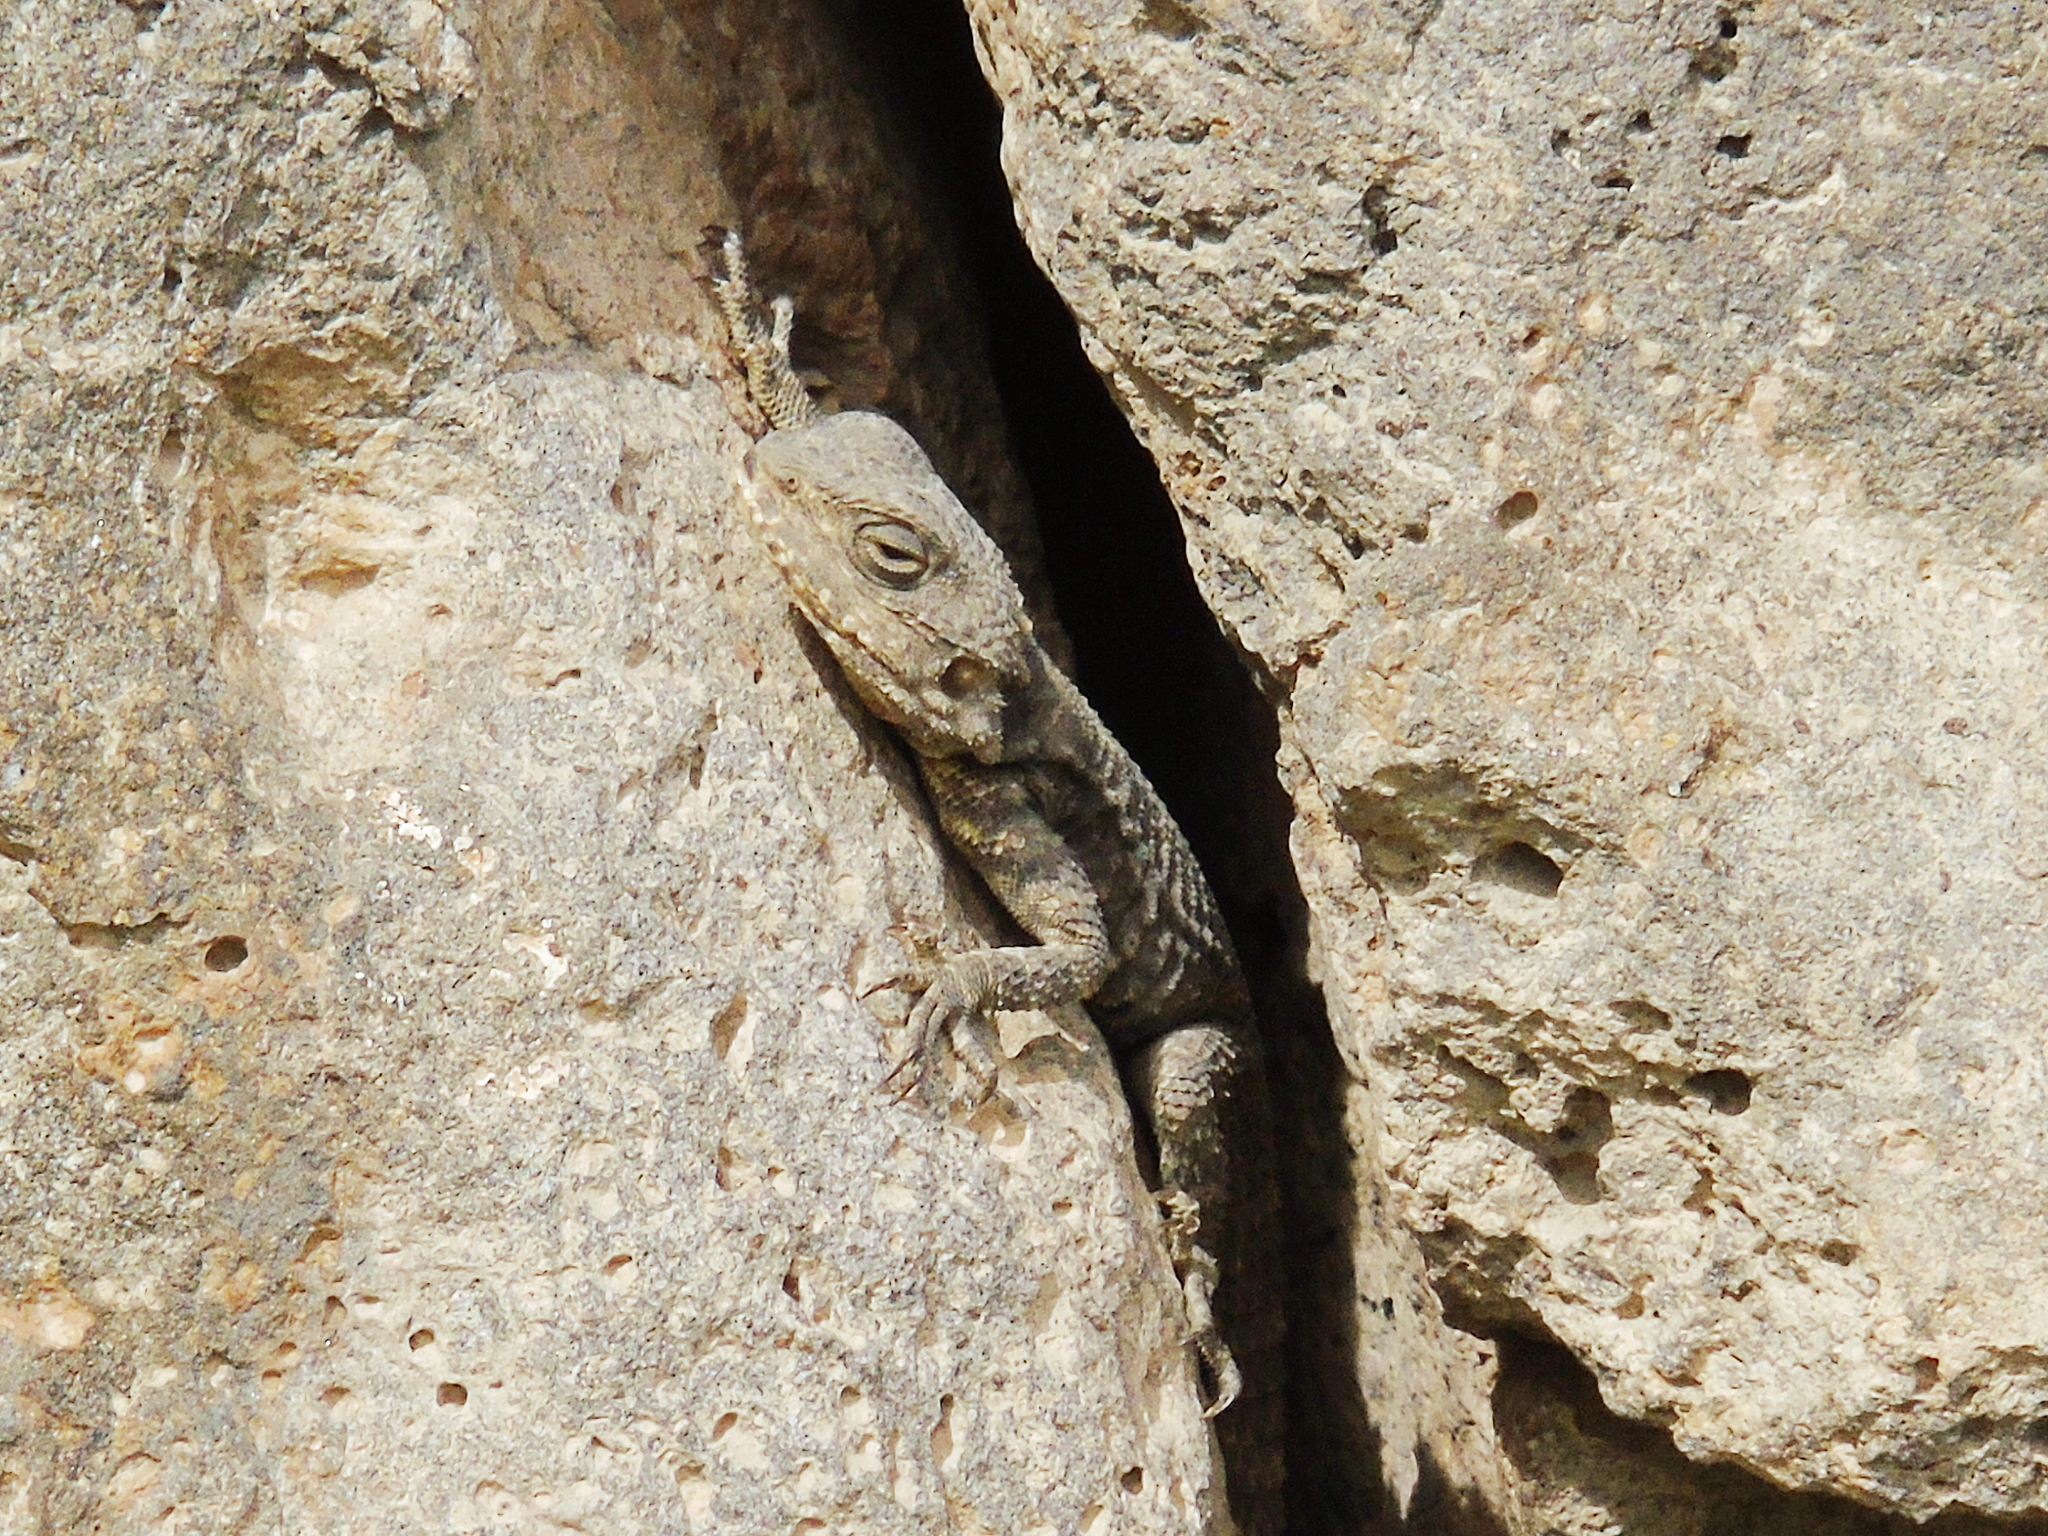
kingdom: Animalia
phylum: Chordata
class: Squamata
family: Agamidae
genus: Stellagama
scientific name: Stellagama stellio
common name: Starred agama
